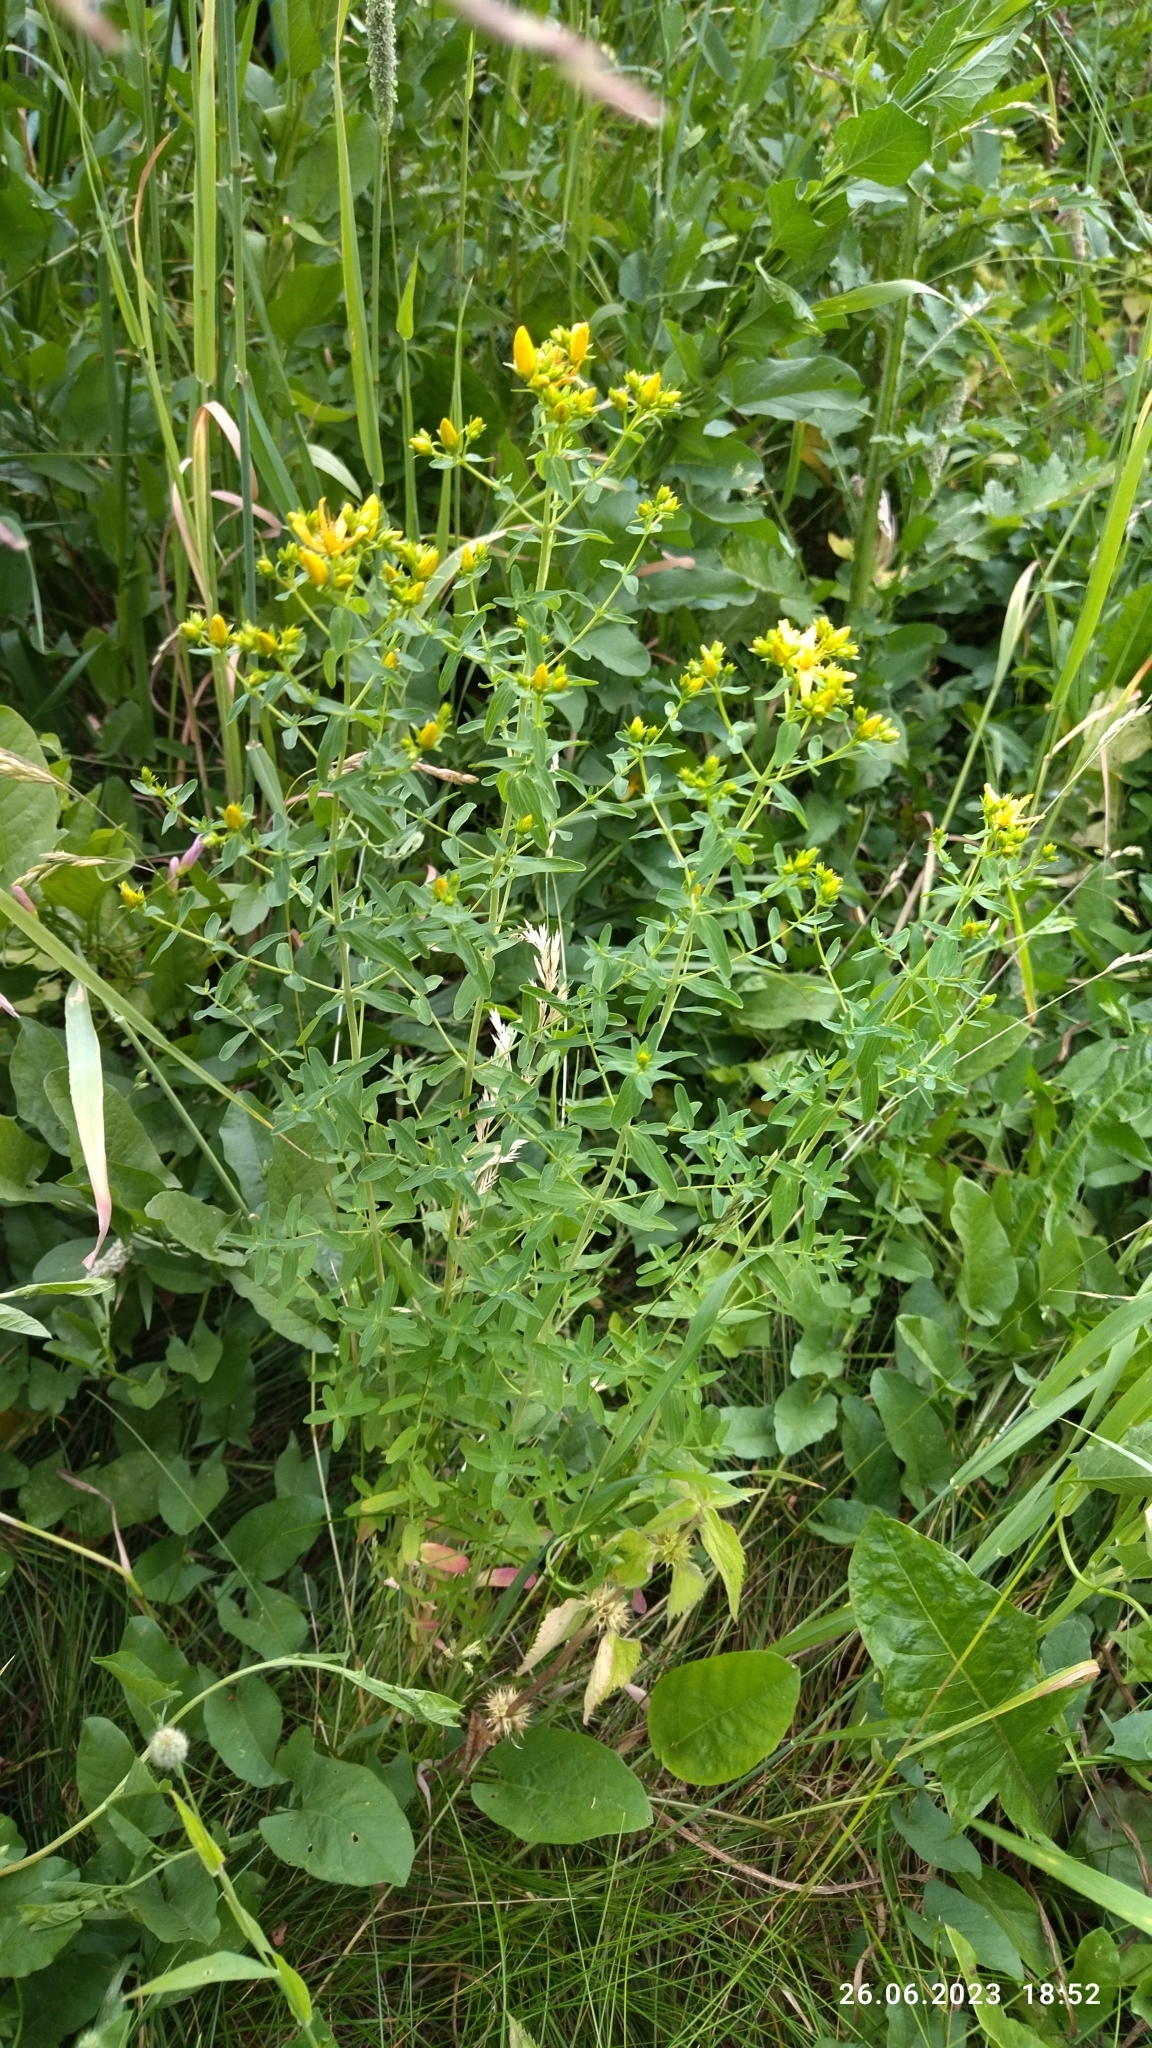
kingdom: Plantae
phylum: Tracheophyta
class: Magnoliopsida
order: Malpighiales
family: Hypericaceae
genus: Hypericum
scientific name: Hypericum perforatum
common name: Common st. johnswort
